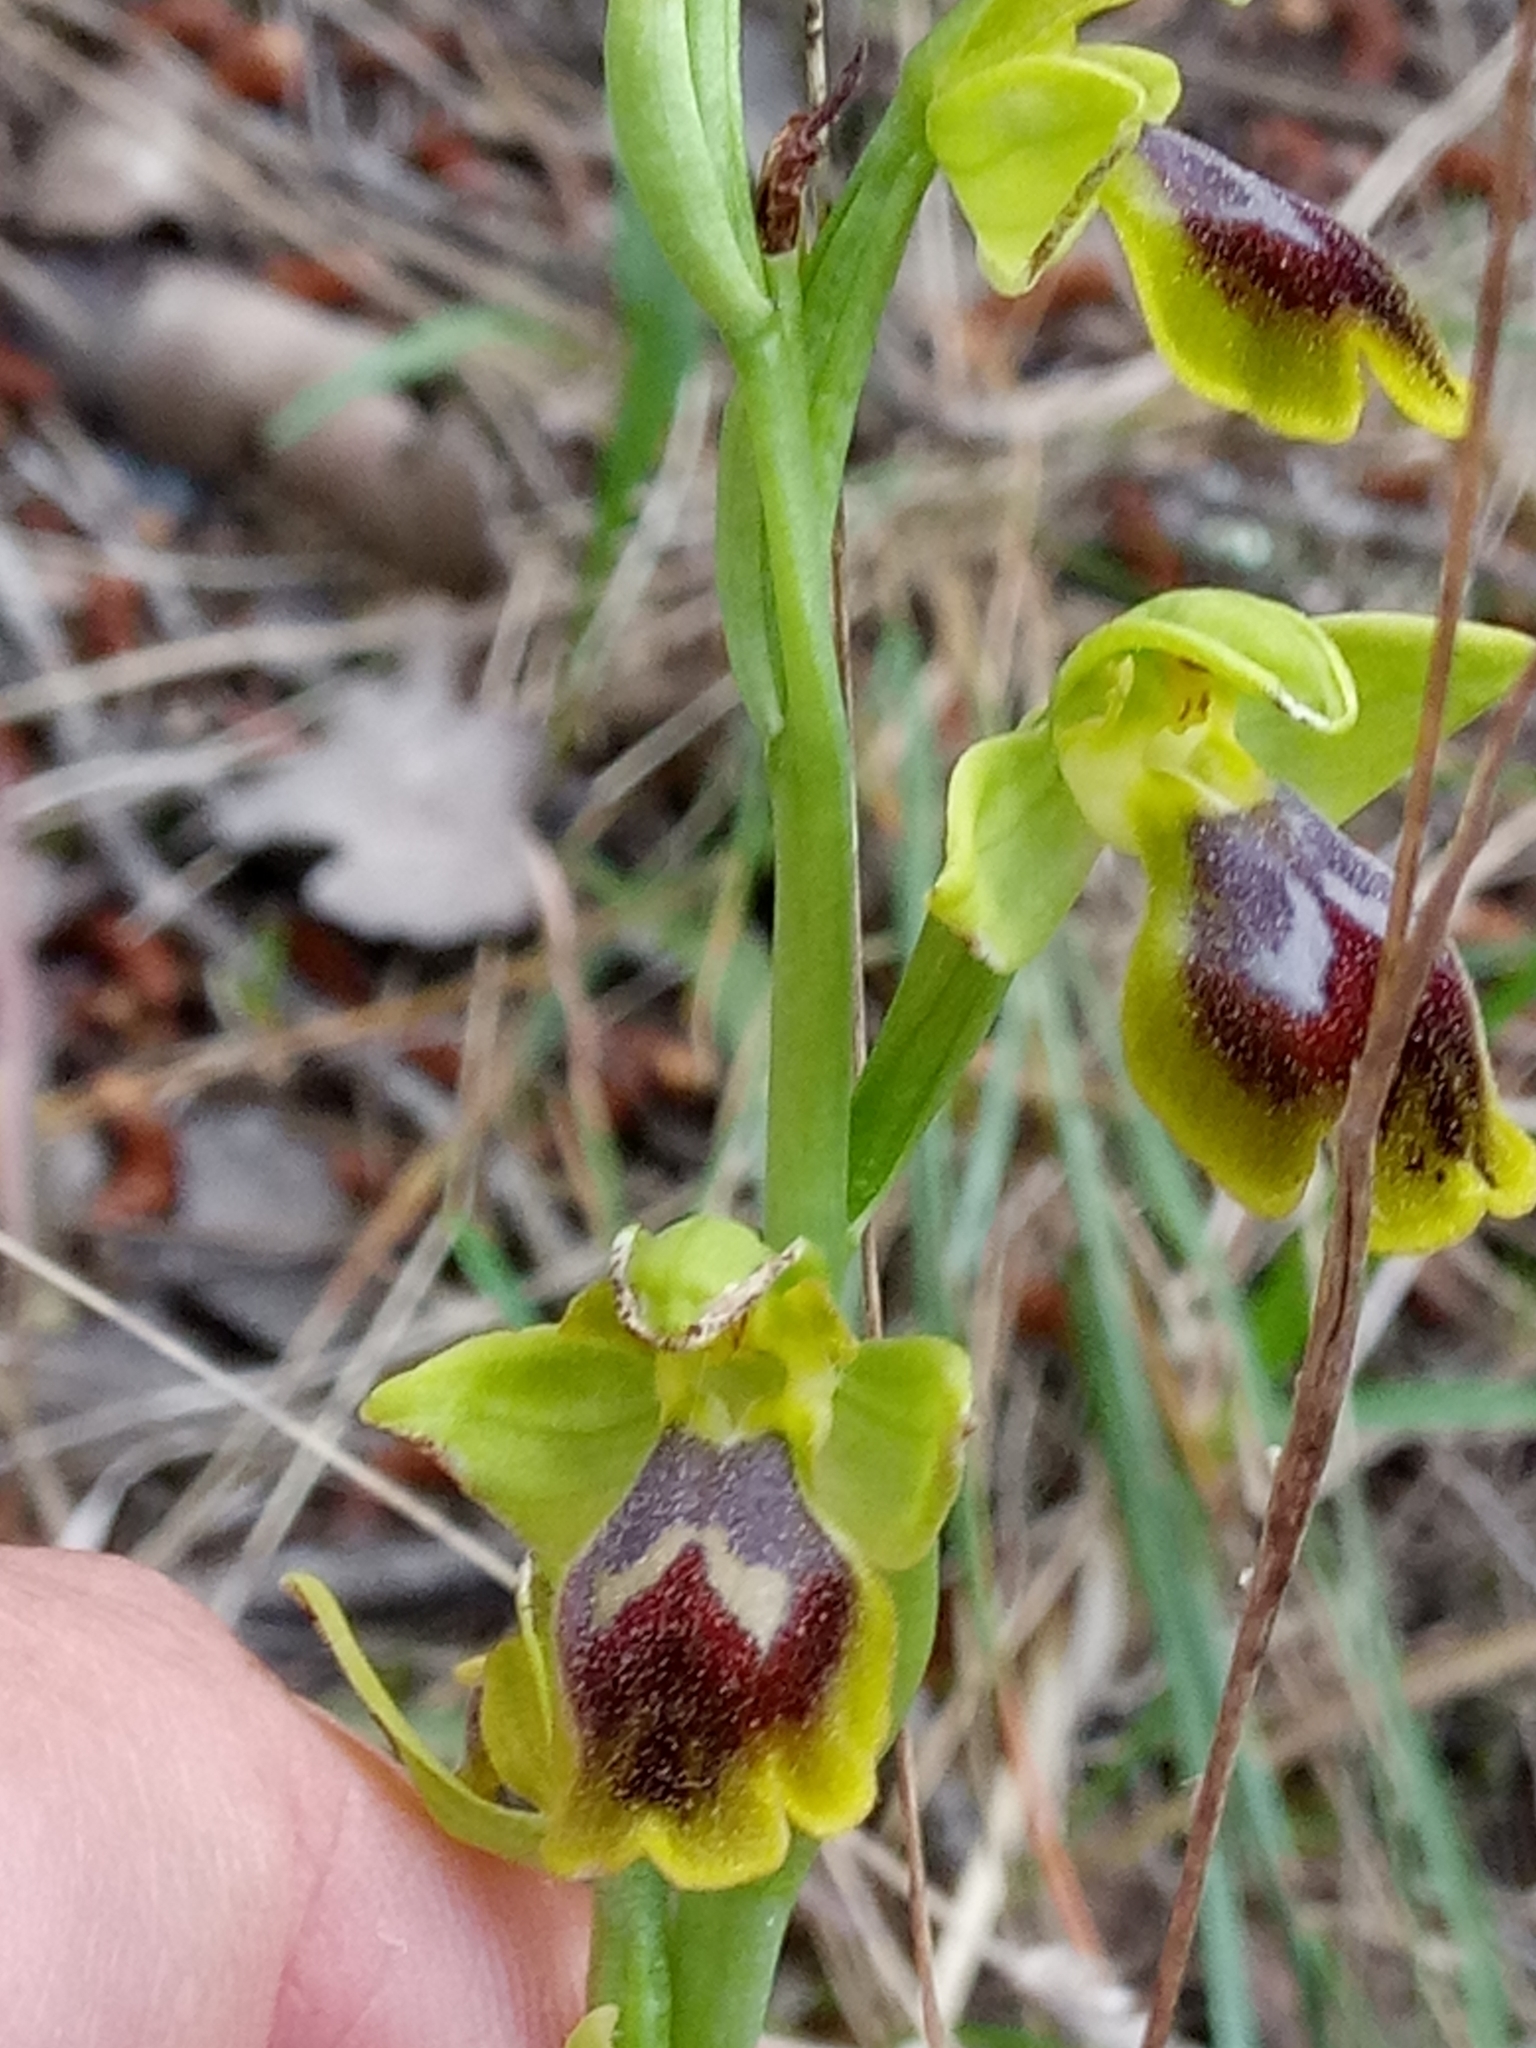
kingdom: Plantae
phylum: Tracheophyta
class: Liliopsida
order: Asparagales
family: Orchidaceae
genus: Ophrys
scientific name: Ophrys battandieri
